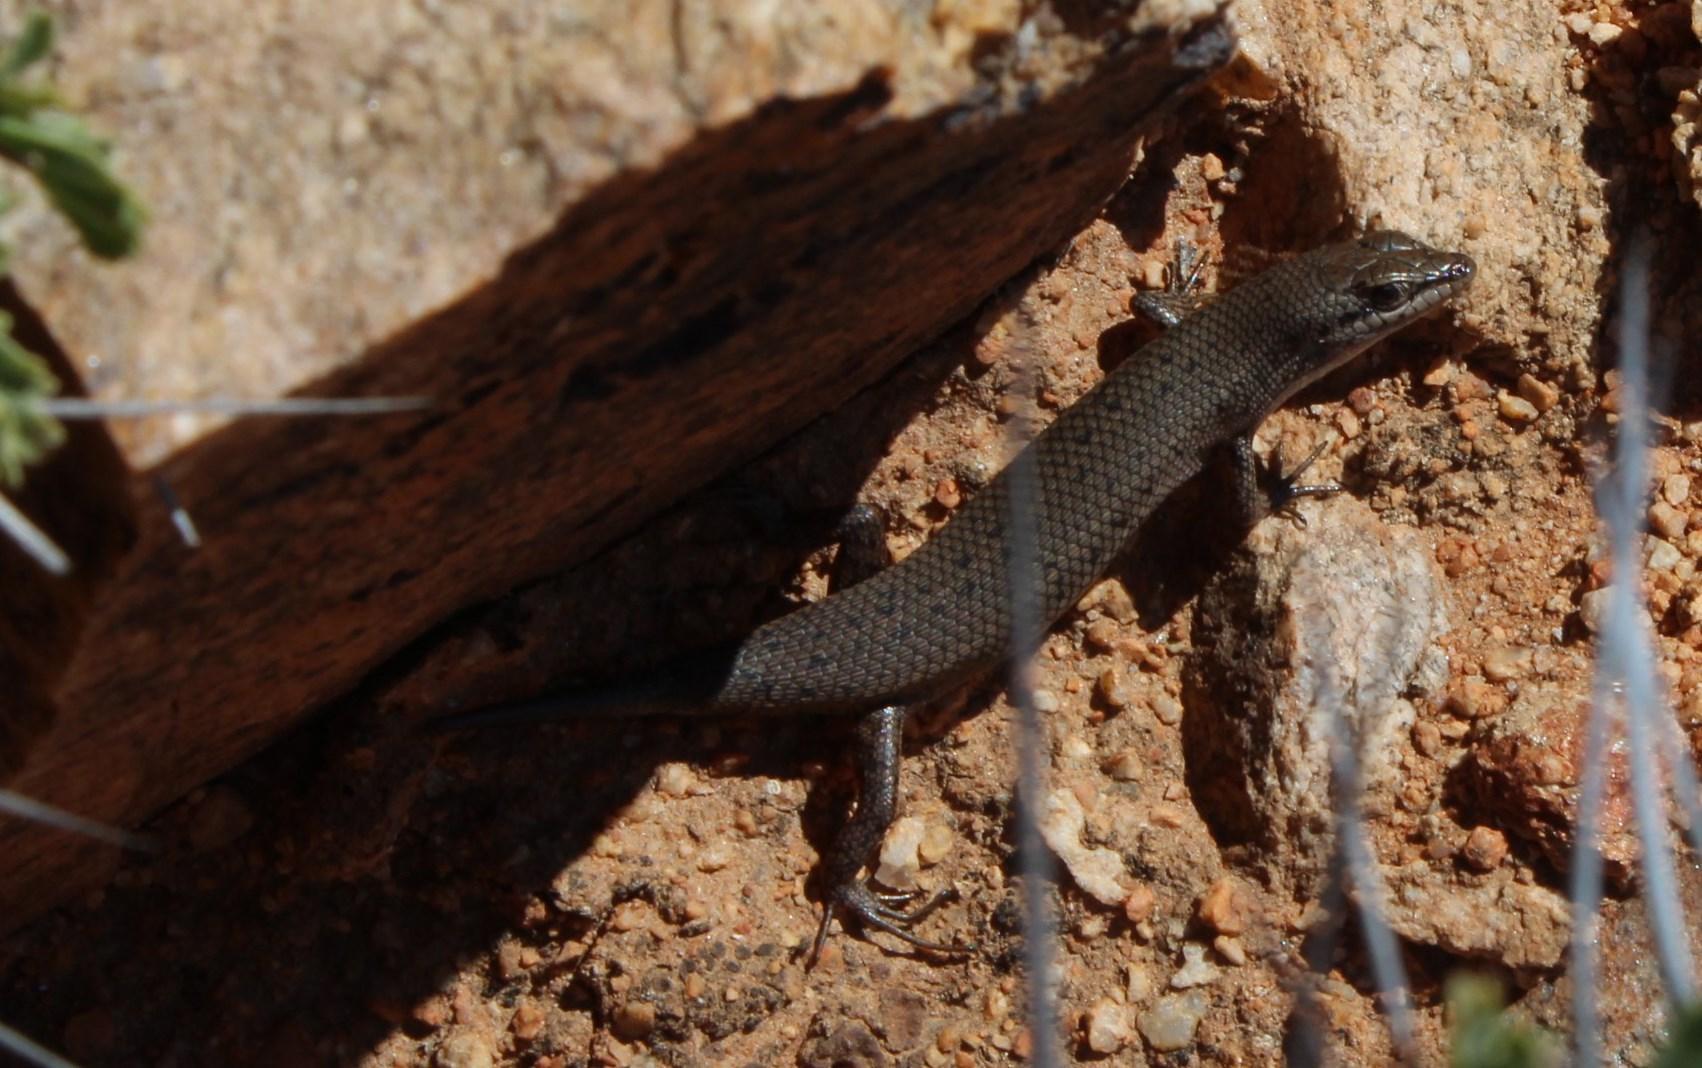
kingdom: Animalia
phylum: Chordata
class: Squamata
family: Scincidae
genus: Trachylepis
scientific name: Trachylepis variegata
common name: Variegated skink
